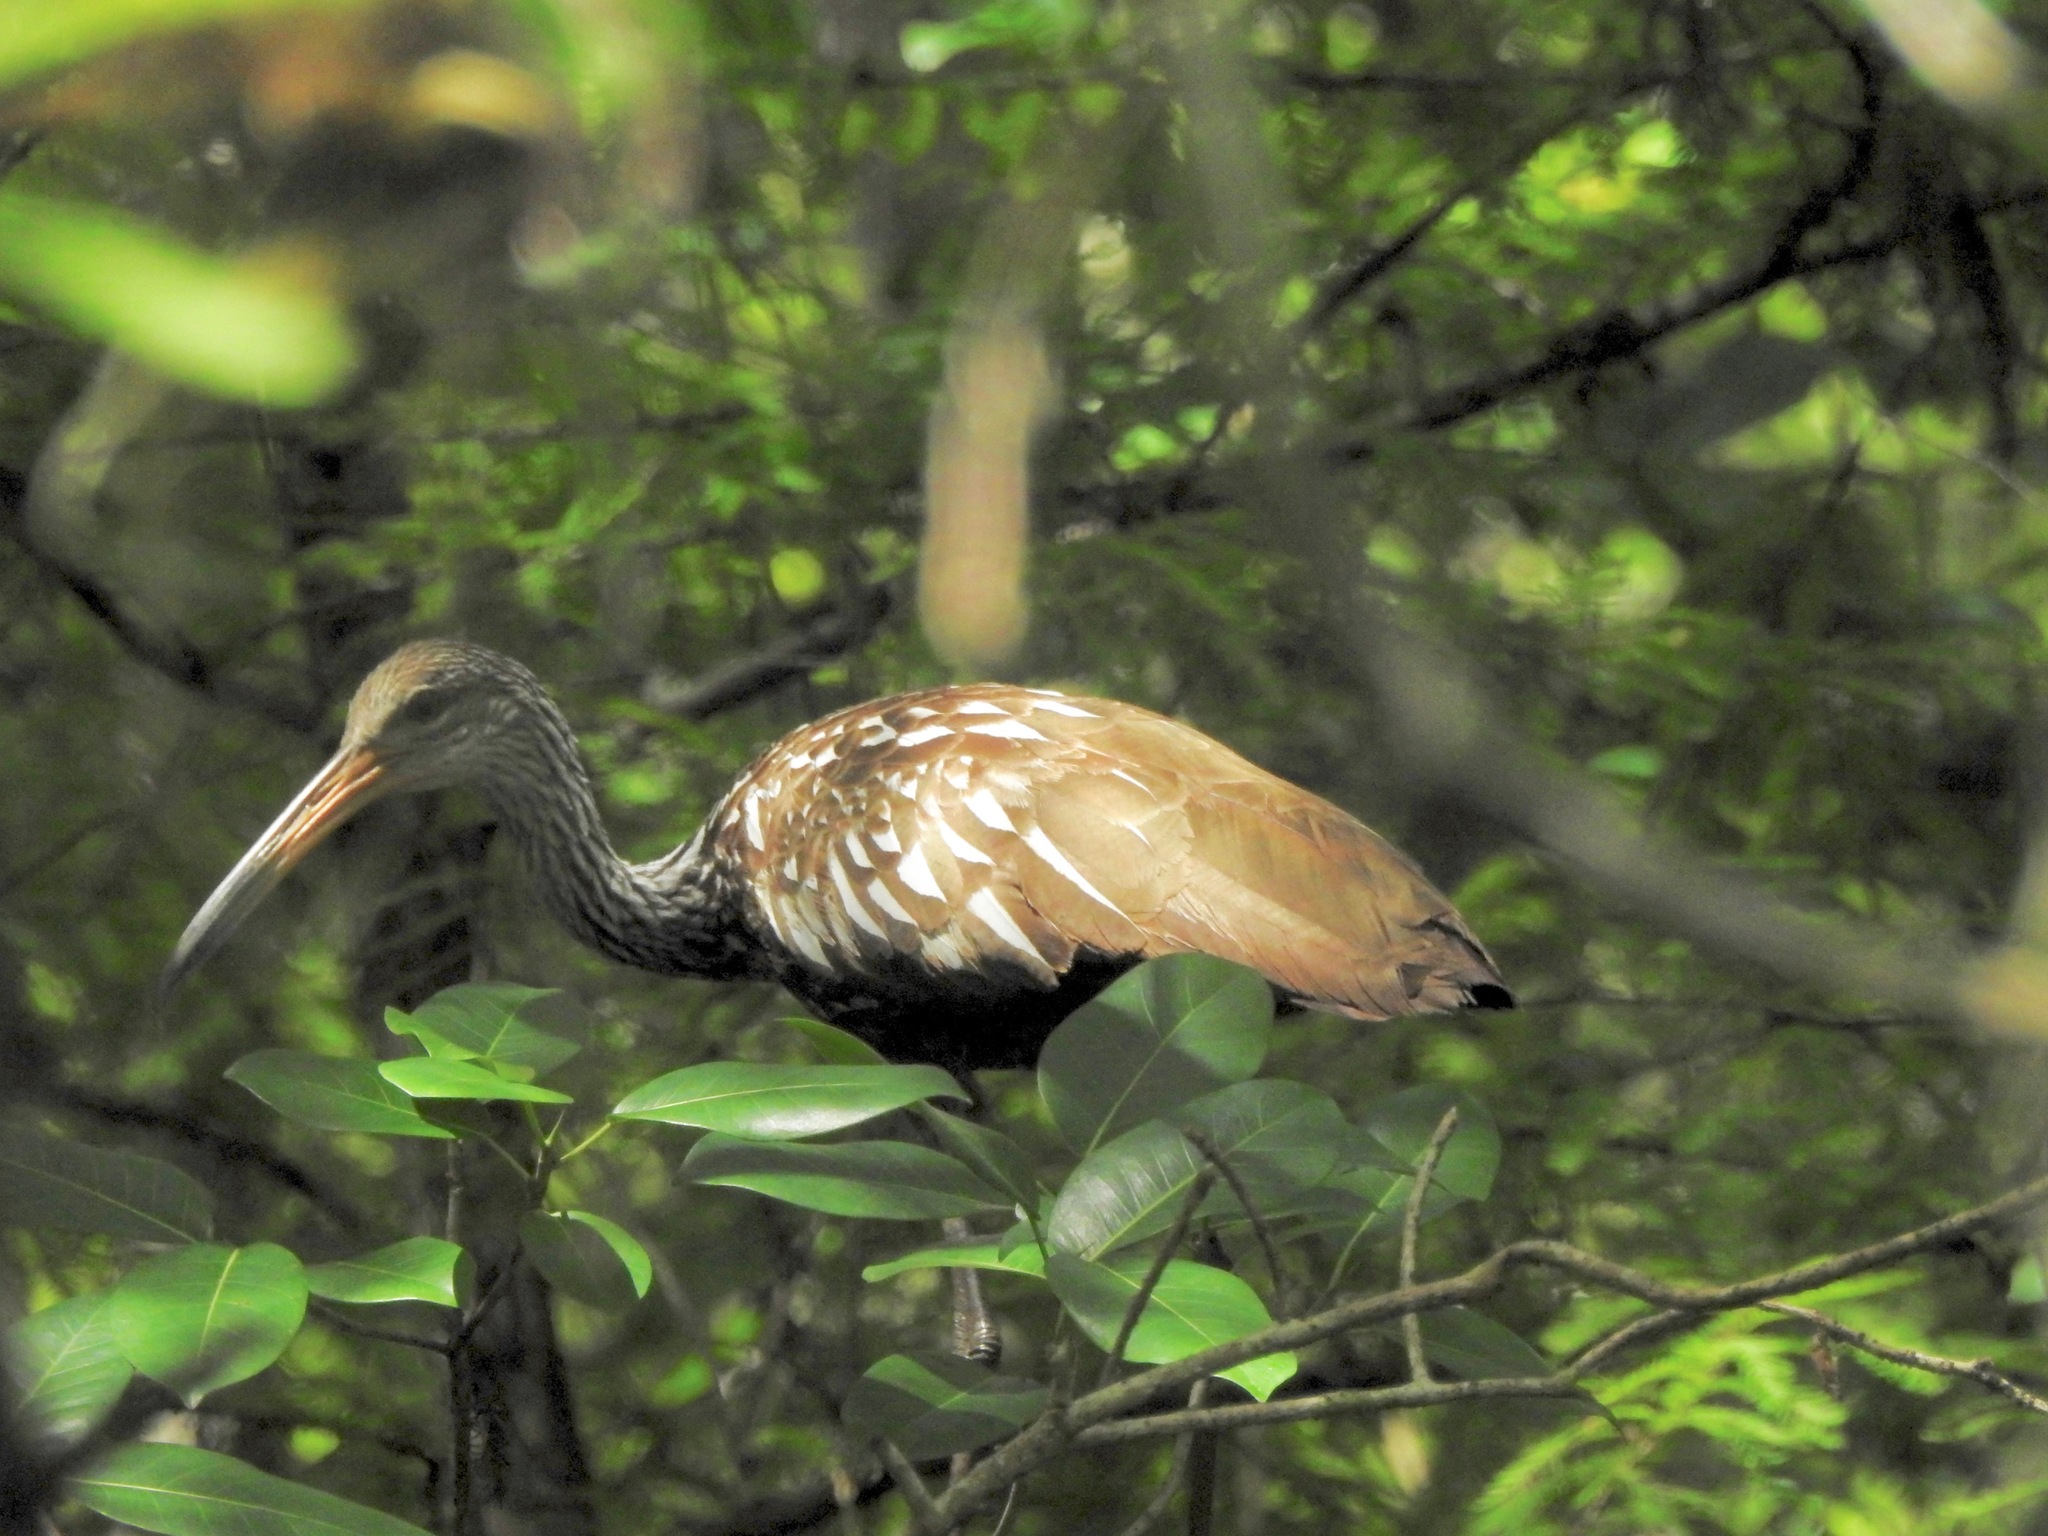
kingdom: Animalia
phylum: Chordata
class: Aves
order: Gruiformes
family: Aramidae
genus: Aramus
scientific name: Aramus guarauna
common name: Limpkin
